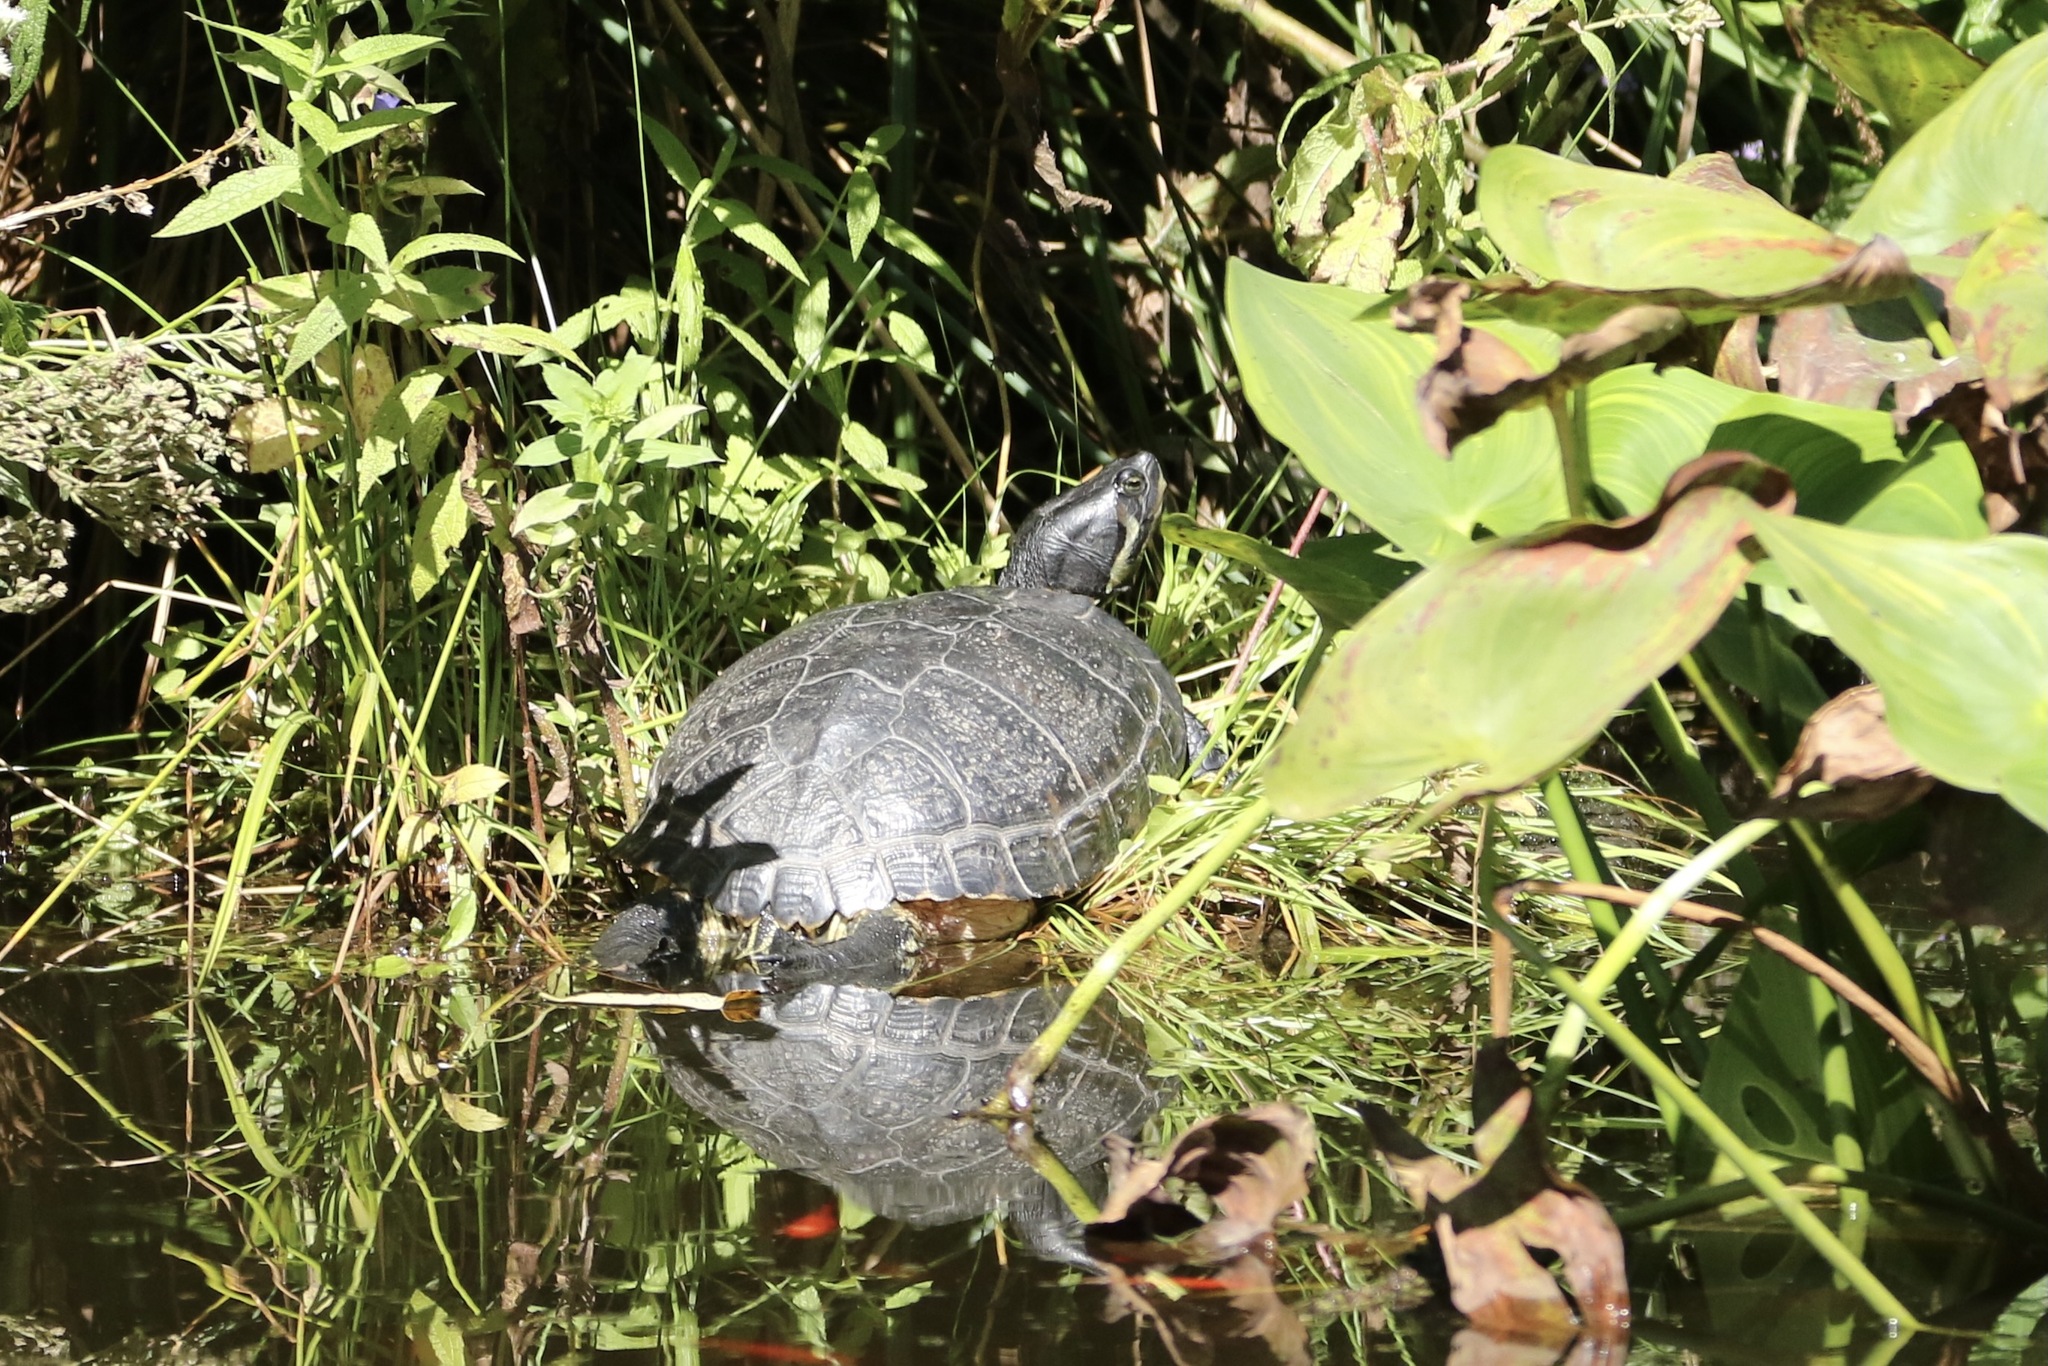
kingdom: Animalia
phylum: Chordata
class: Testudines
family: Emydidae
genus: Trachemys
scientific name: Trachemys scripta
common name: Slider
